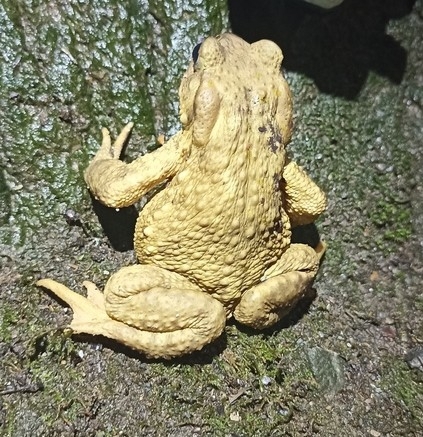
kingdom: Animalia
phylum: Chordata
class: Amphibia
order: Anura
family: Bufonidae
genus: Bufo
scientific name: Bufo spinosus
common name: Western common toad
